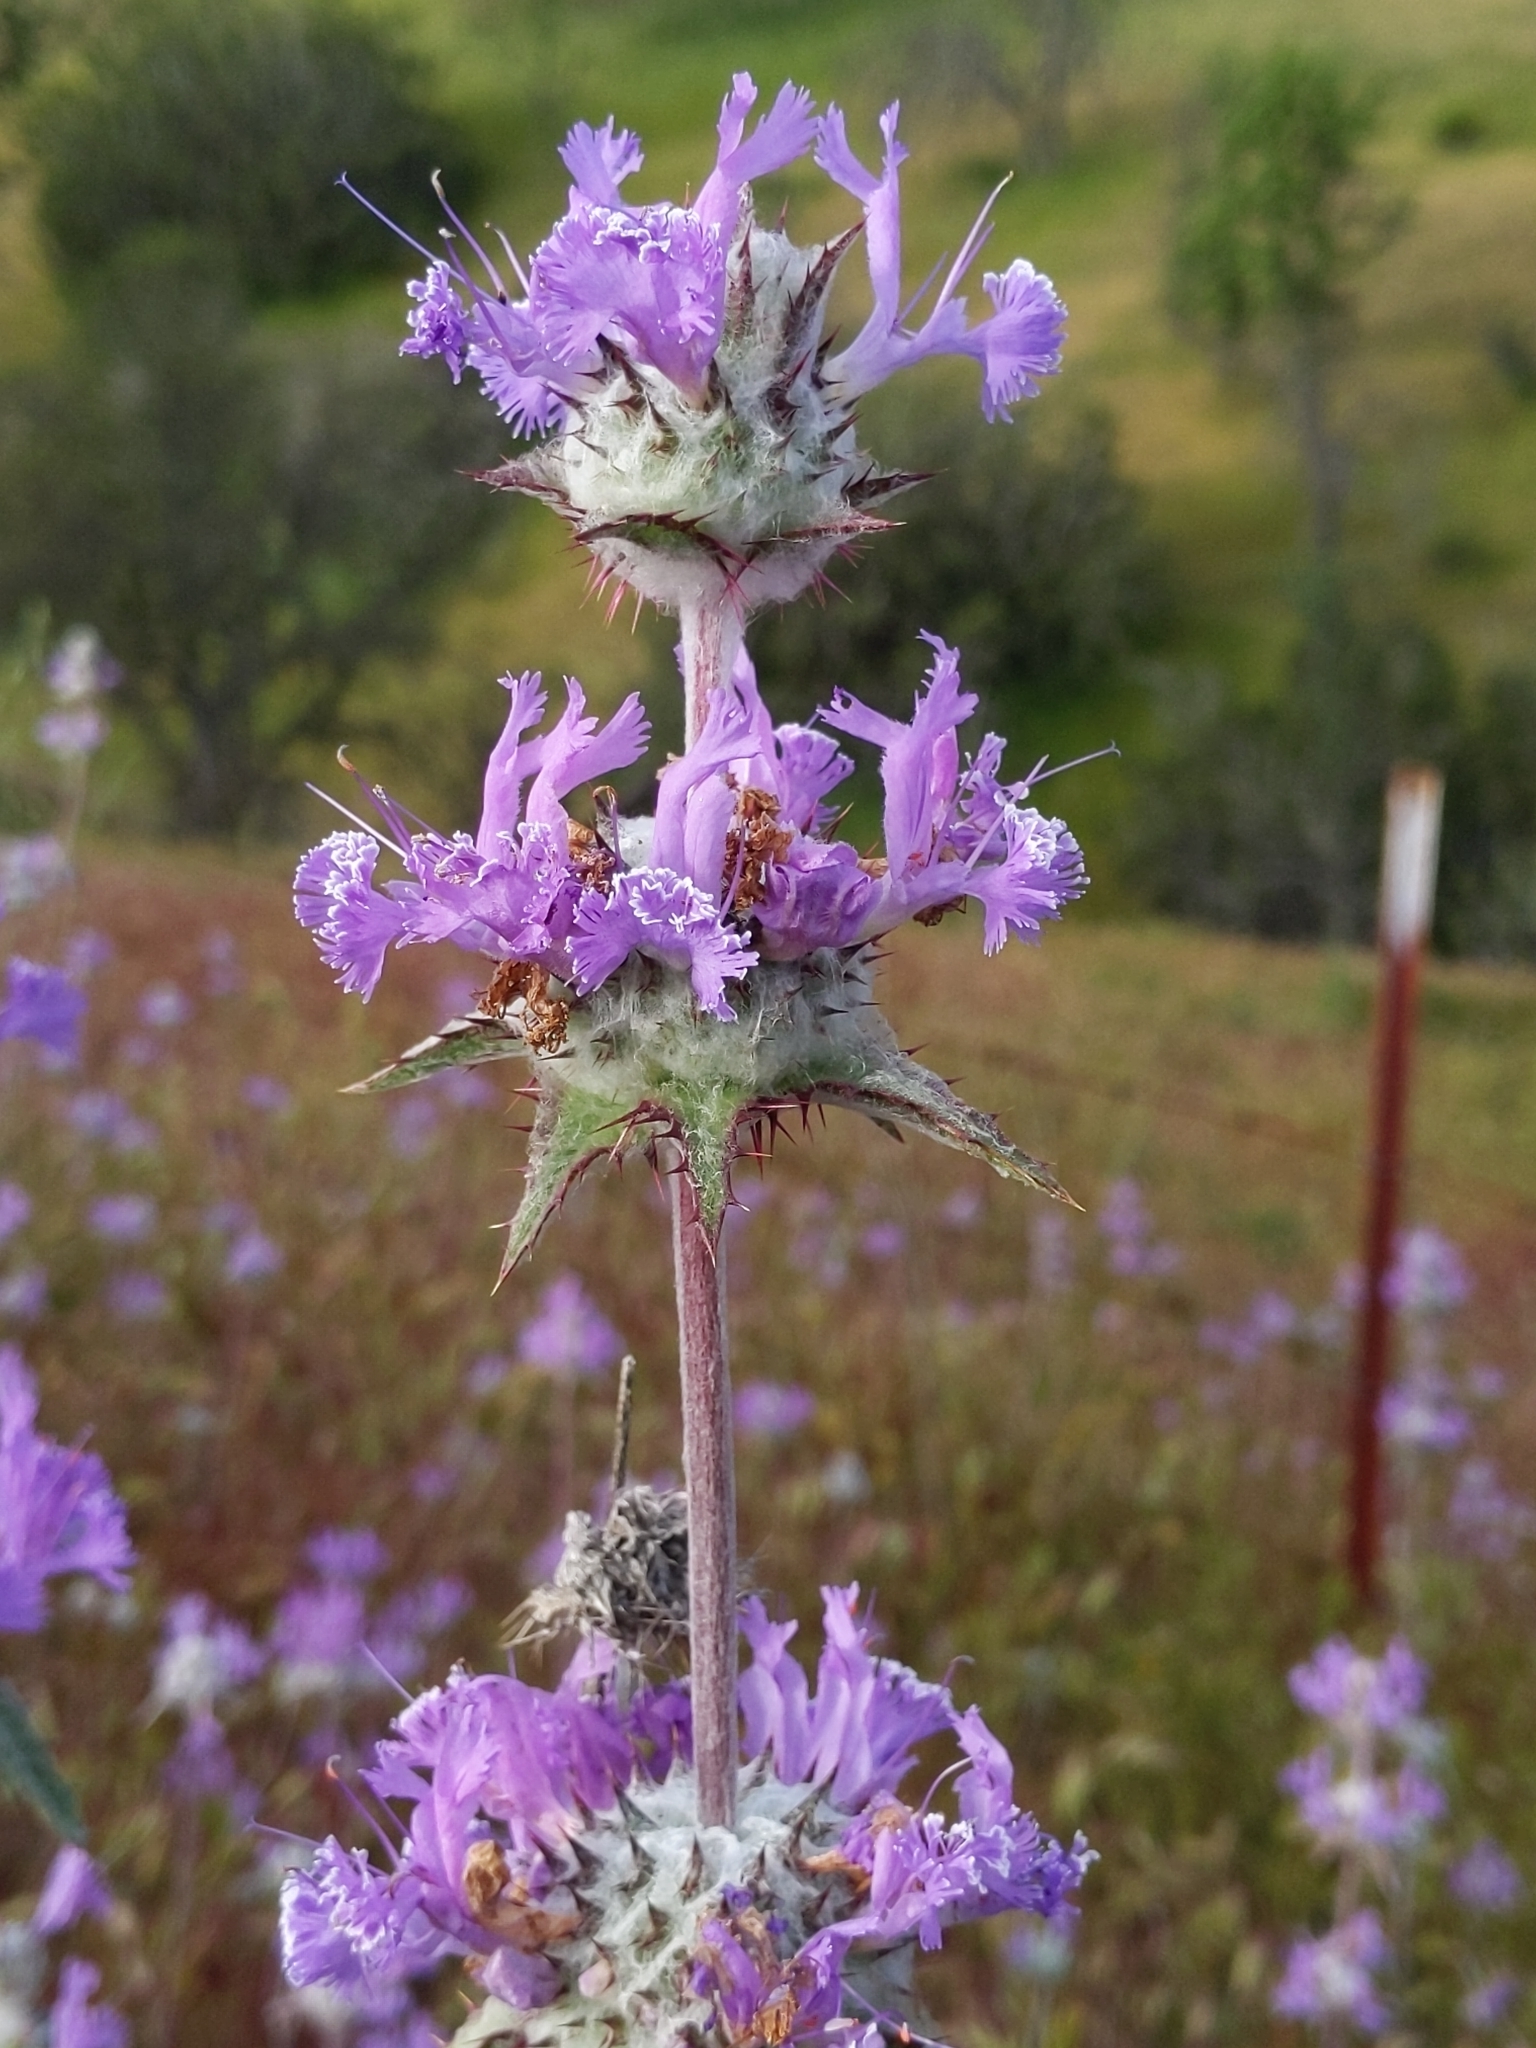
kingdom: Plantae
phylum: Tracheophyta
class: Magnoliopsida
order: Lamiales
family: Lamiaceae
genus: Salvia
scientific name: Salvia carduacea
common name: Thistle sage
